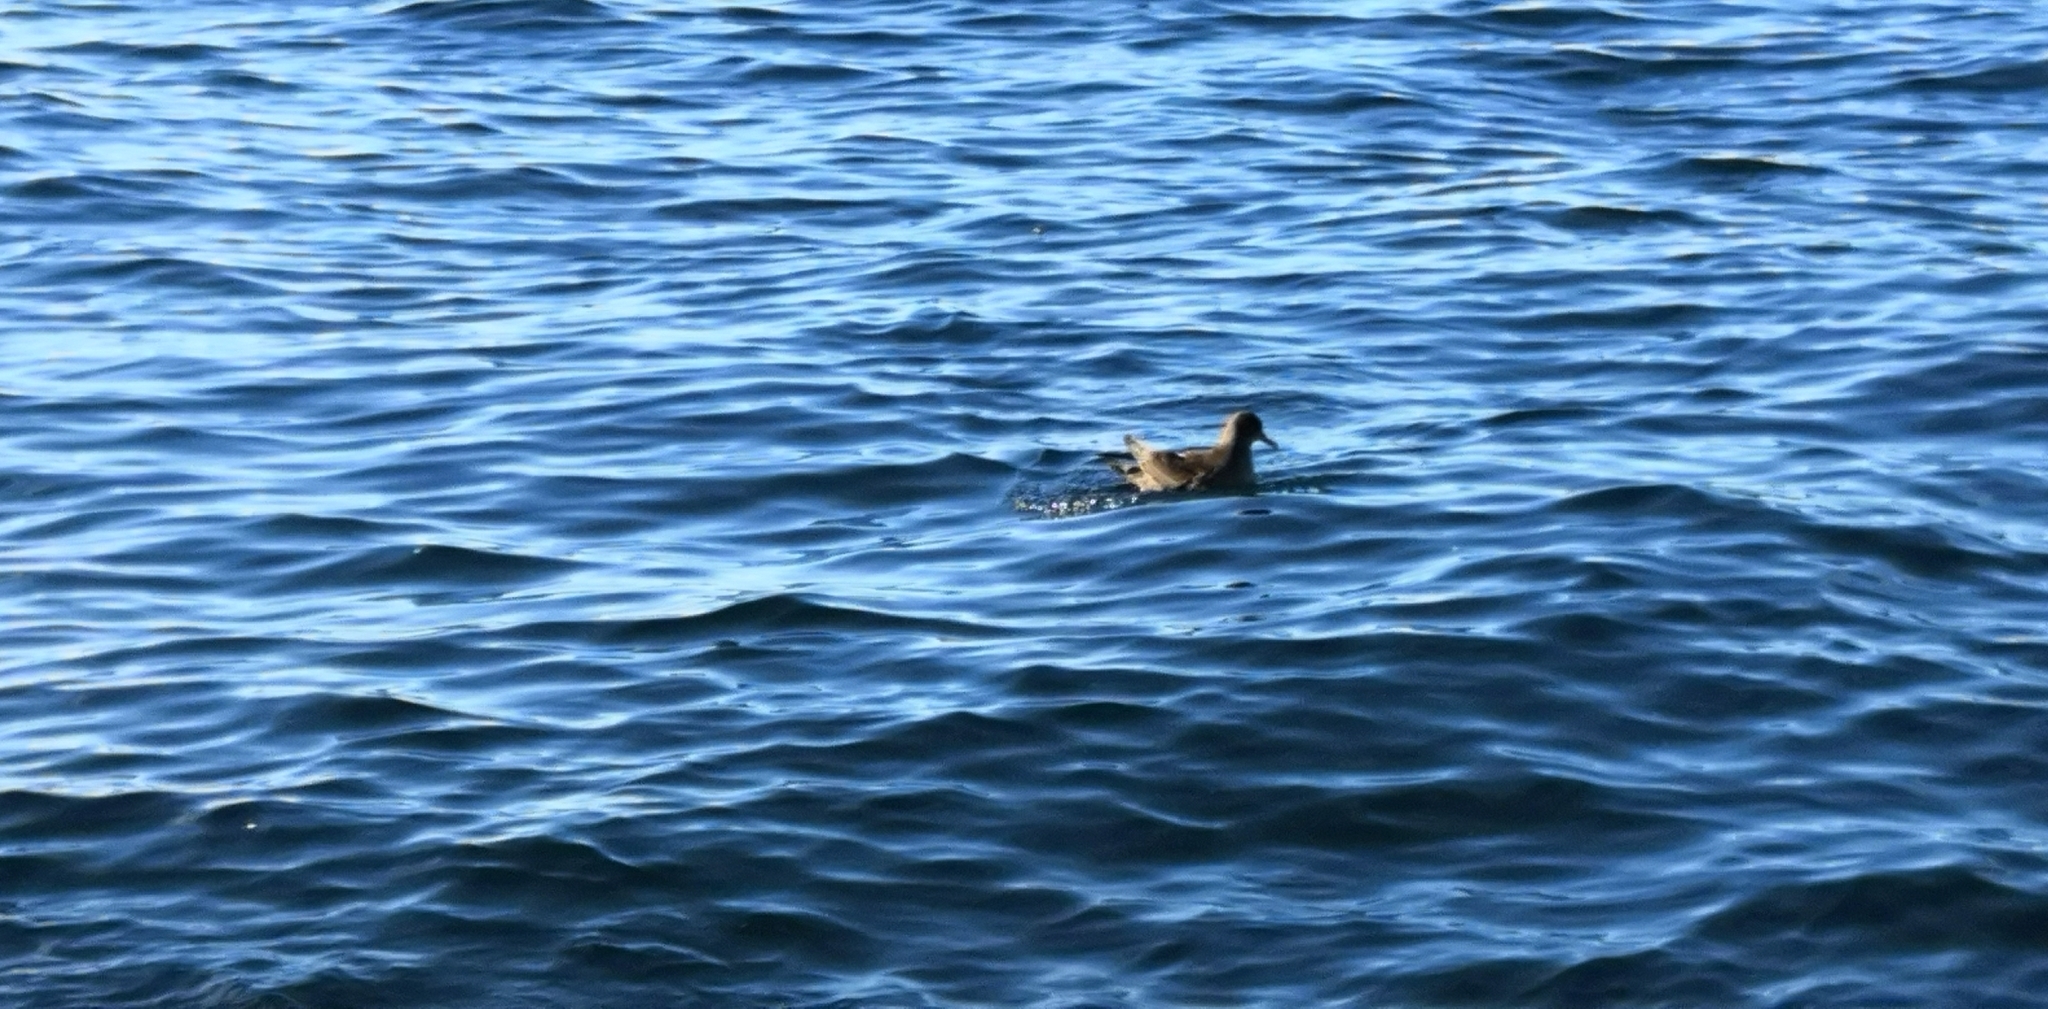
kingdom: Animalia
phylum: Chordata
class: Aves
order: Procellariiformes
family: Procellariidae
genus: Puffinus
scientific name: Puffinus griseus
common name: Sooty shearwater
